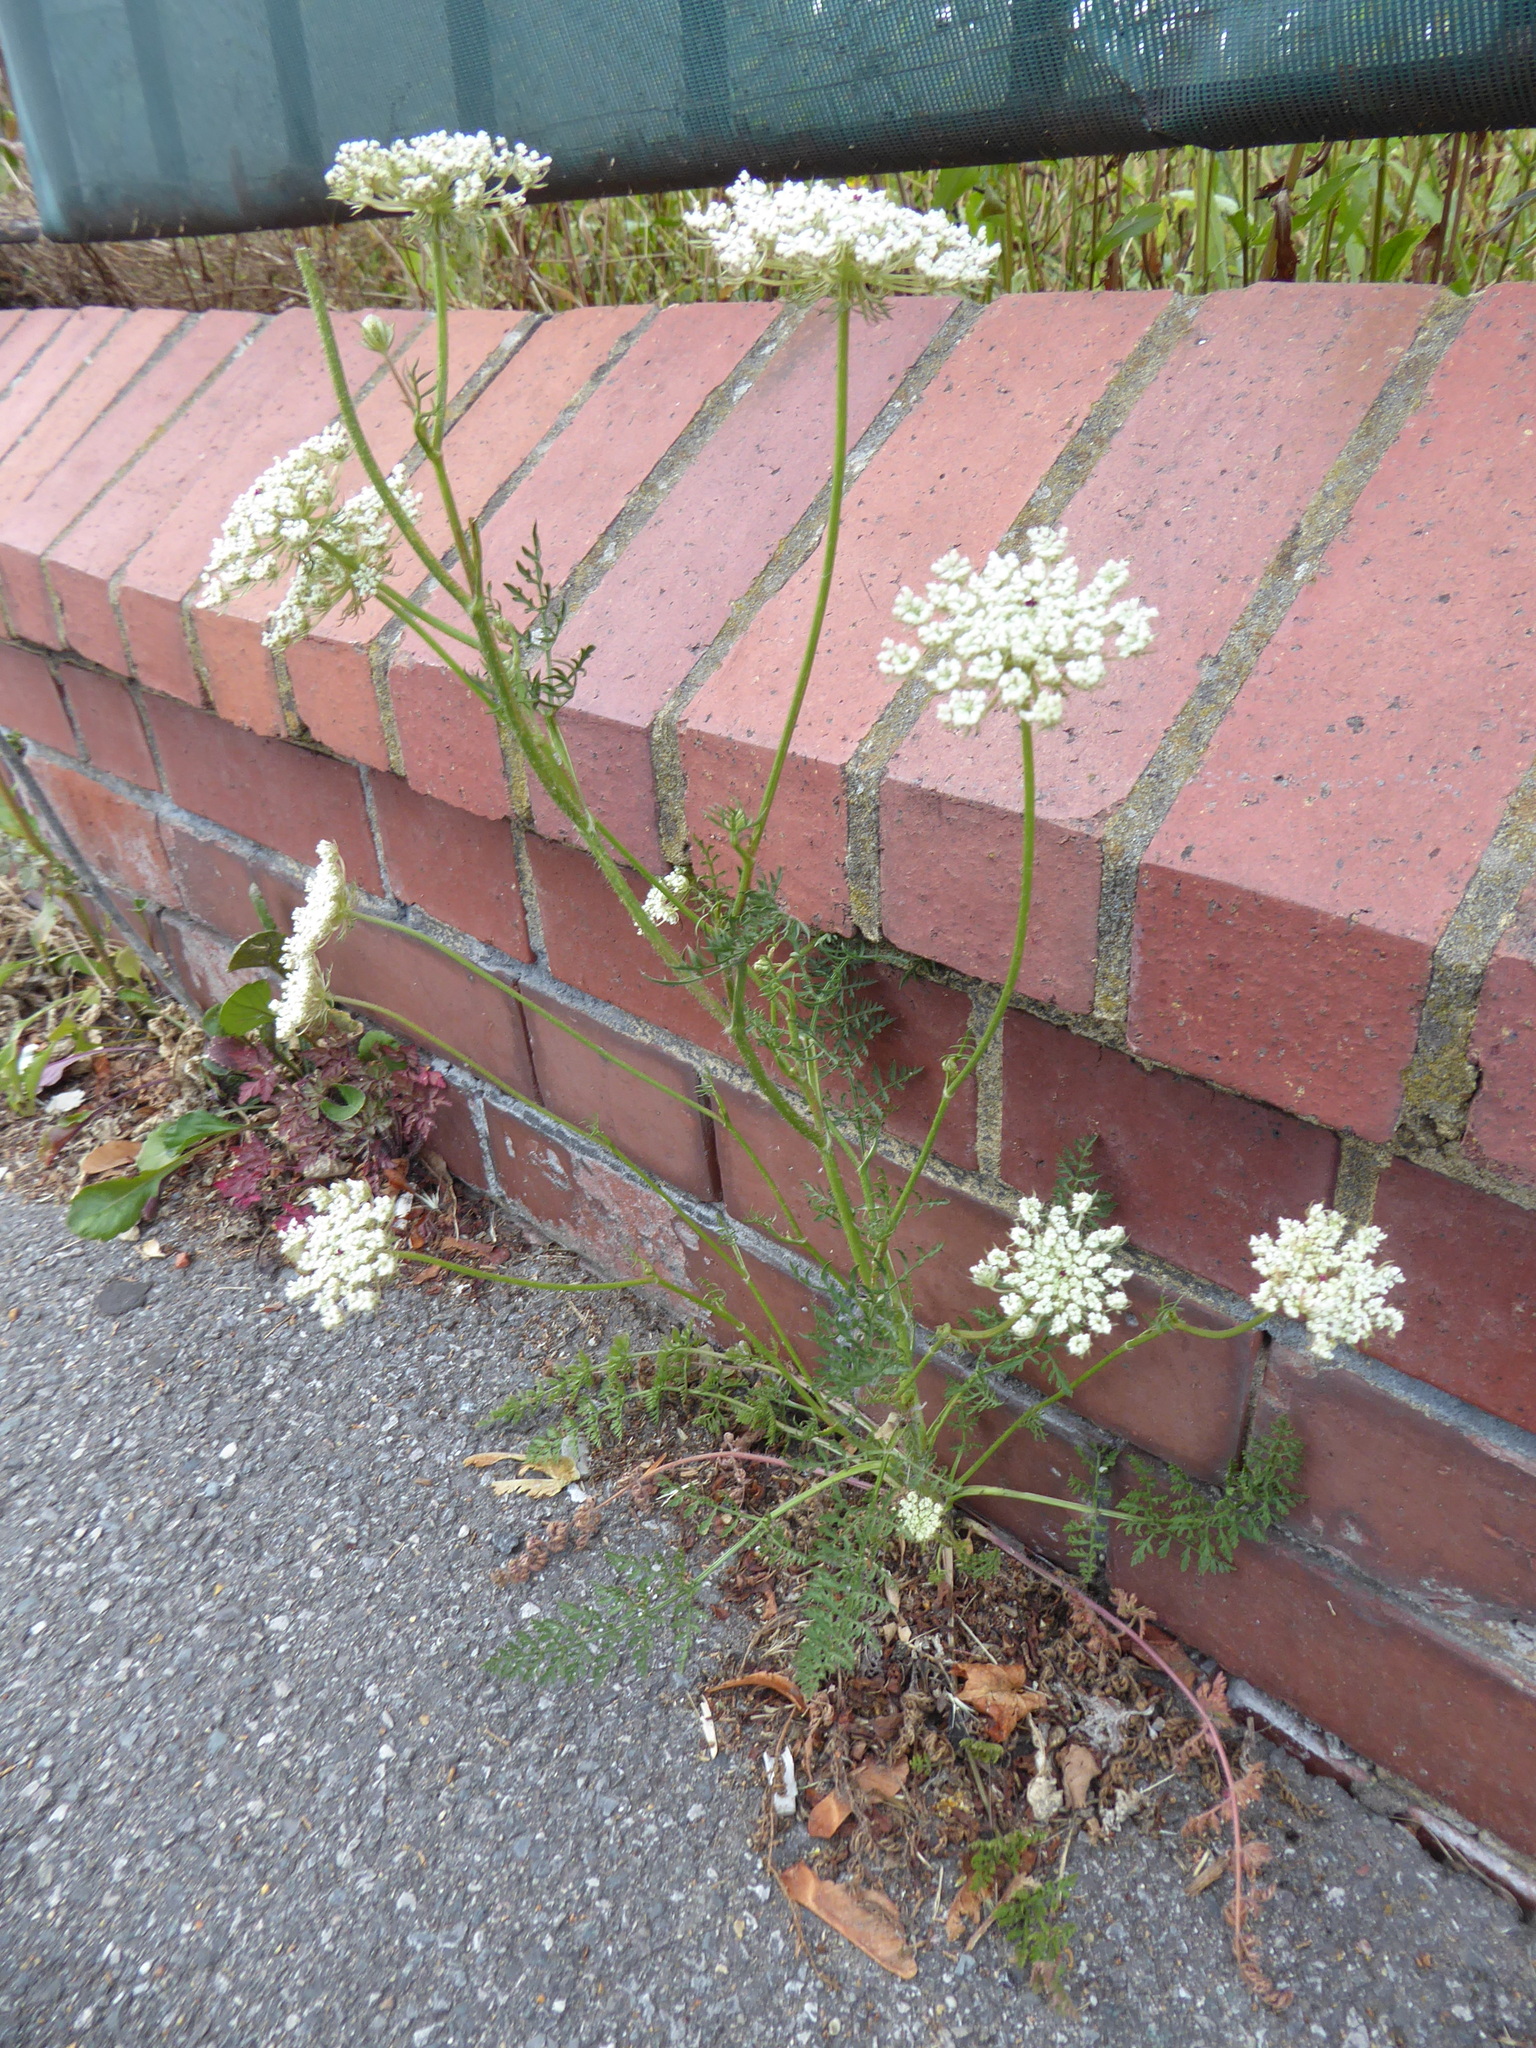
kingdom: Plantae
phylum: Tracheophyta
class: Magnoliopsida
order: Apiales
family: Apiaceae
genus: Daucus
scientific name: Daucus carota
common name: Wild carrot
